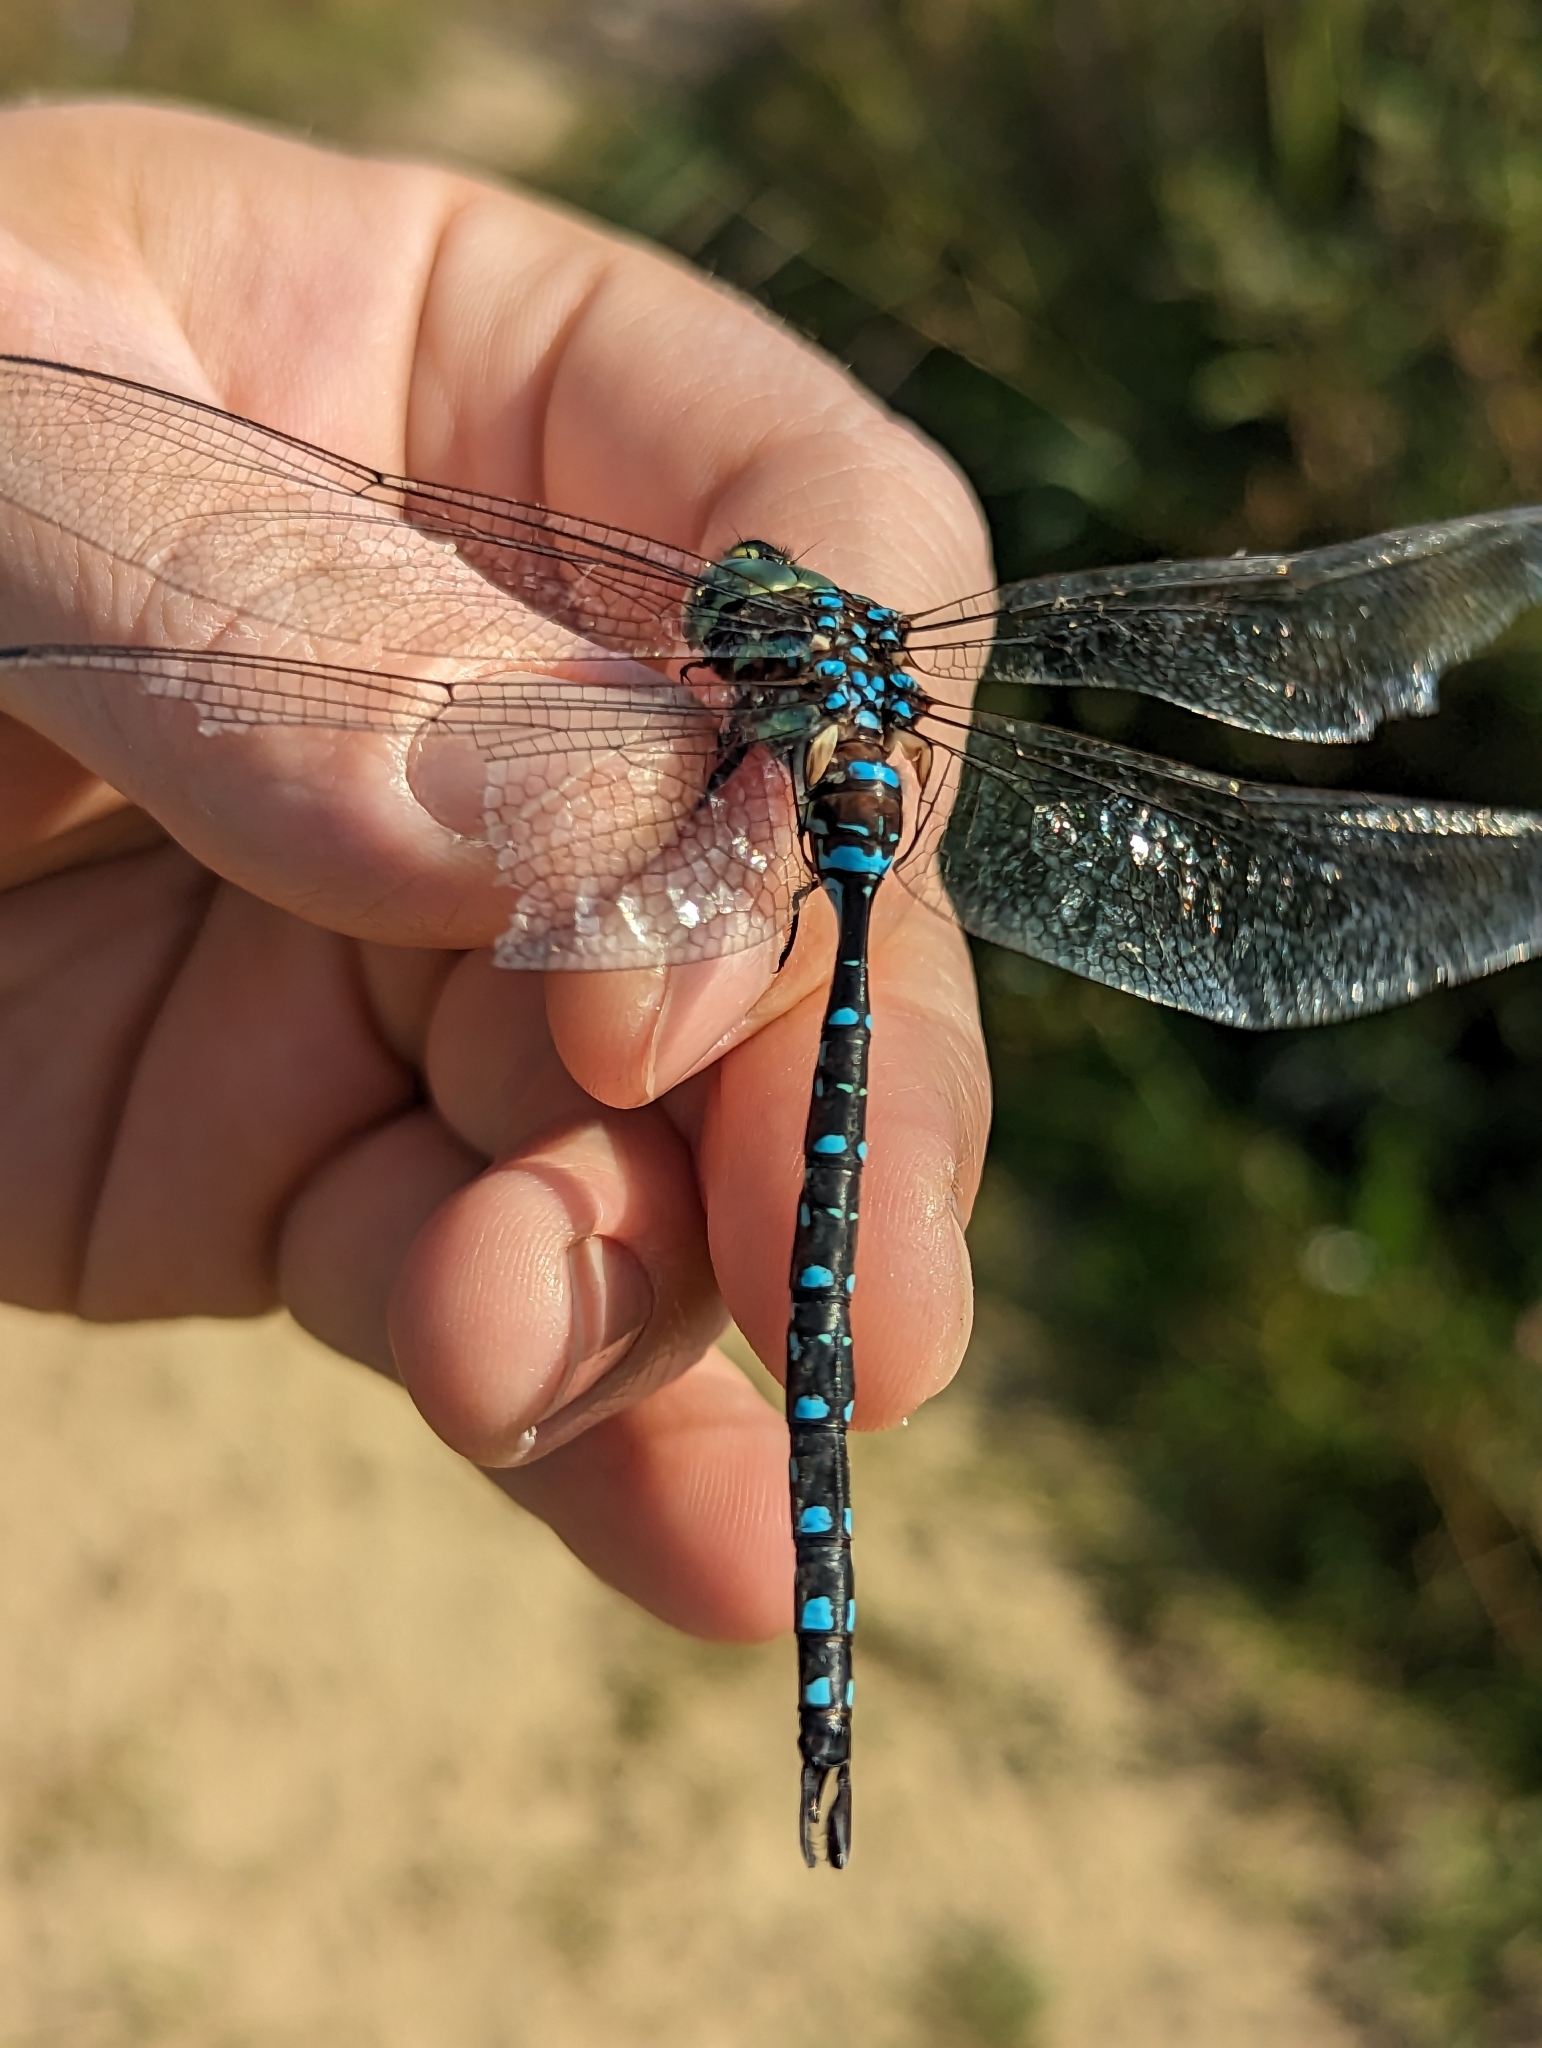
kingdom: Animalia
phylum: Arthropoda
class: Insecta
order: Odonata
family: Aeshnidae
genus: Aeshna
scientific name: Aeshna tuberculifera
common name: Aeschne à tubercules
